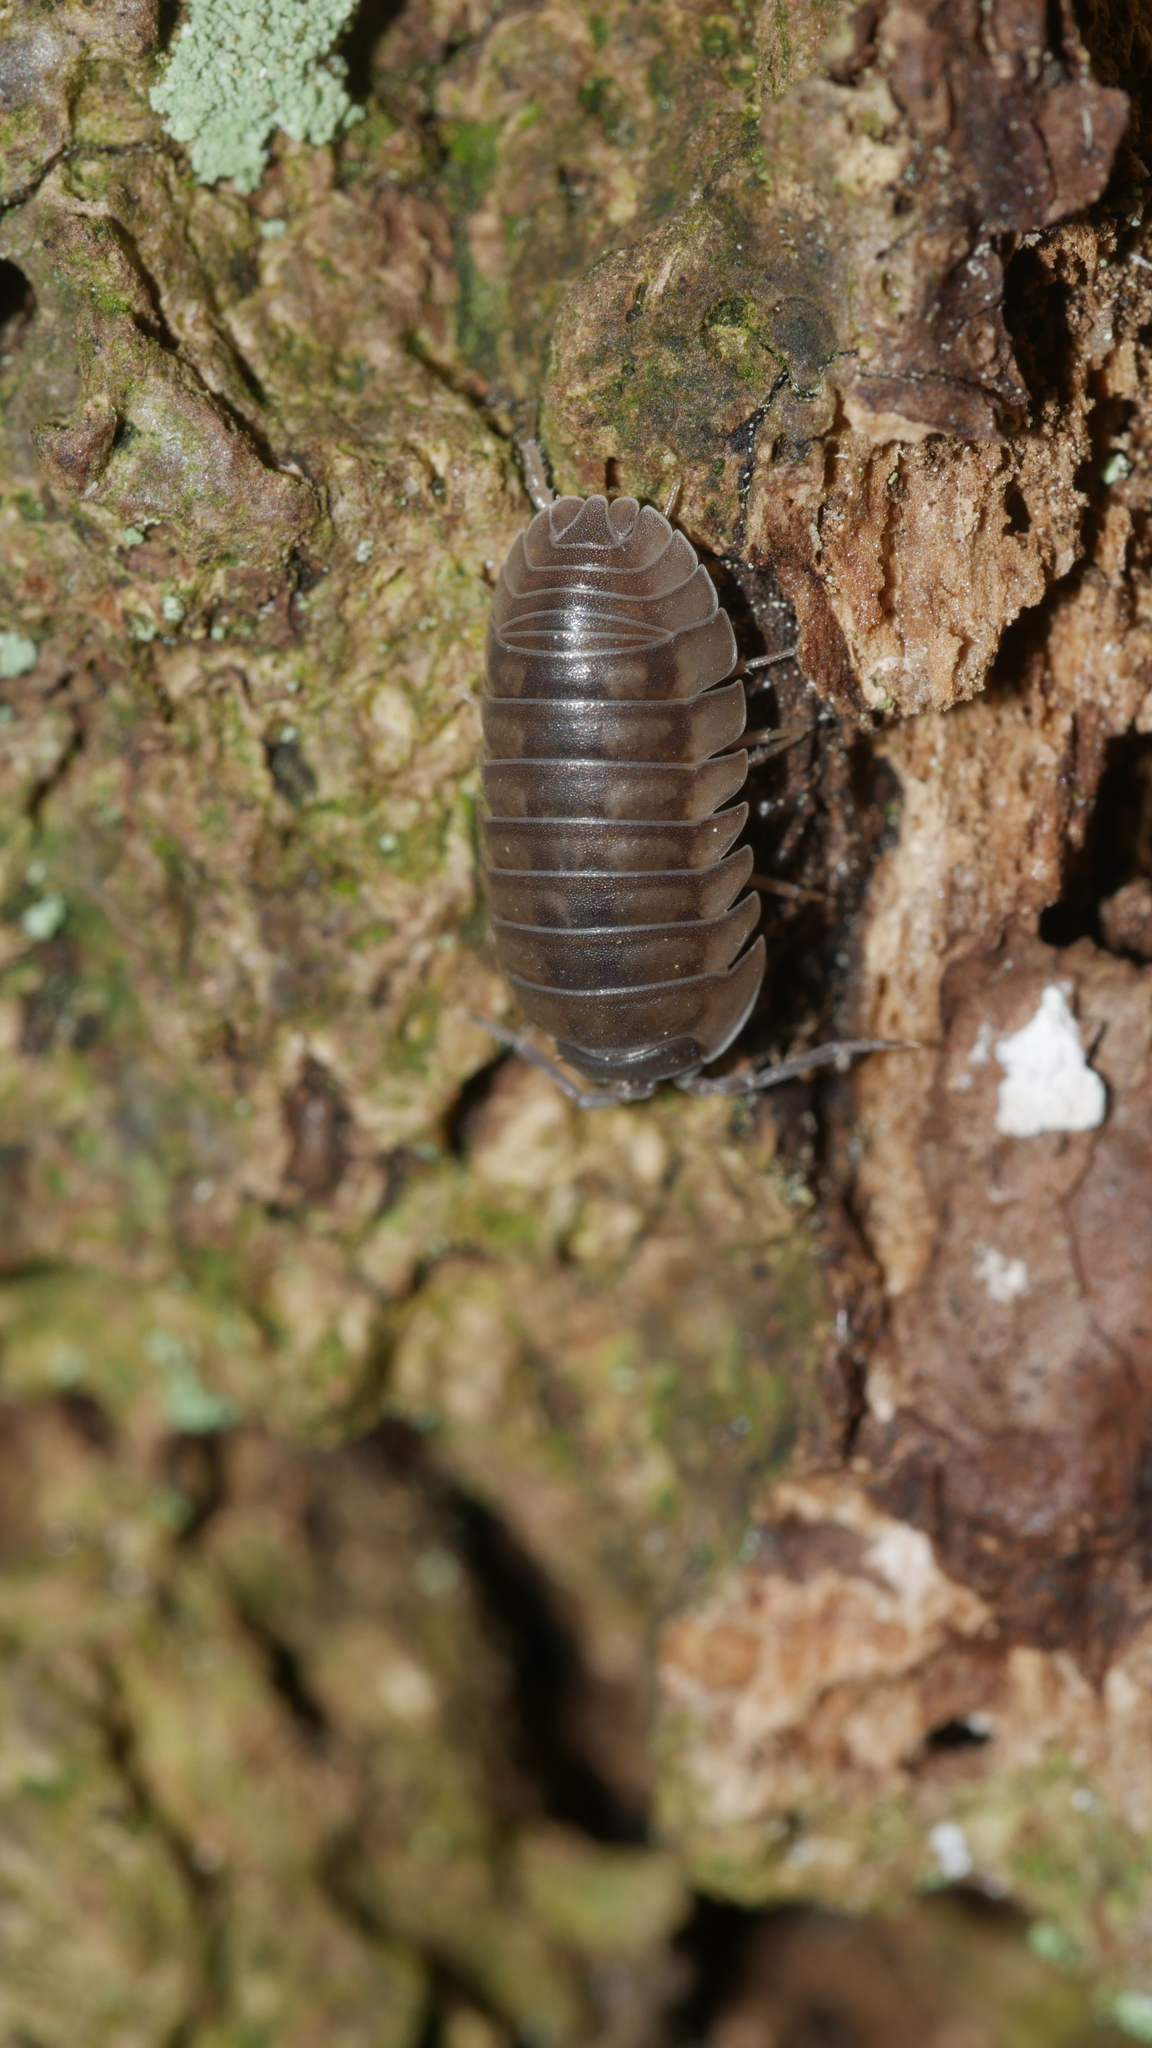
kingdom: Animalia
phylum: Arthropoda
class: Malacostraca
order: Isopoda
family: Armadillidiidae
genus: Armadillidium
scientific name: Armadillidium nasatum
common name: Isopod
